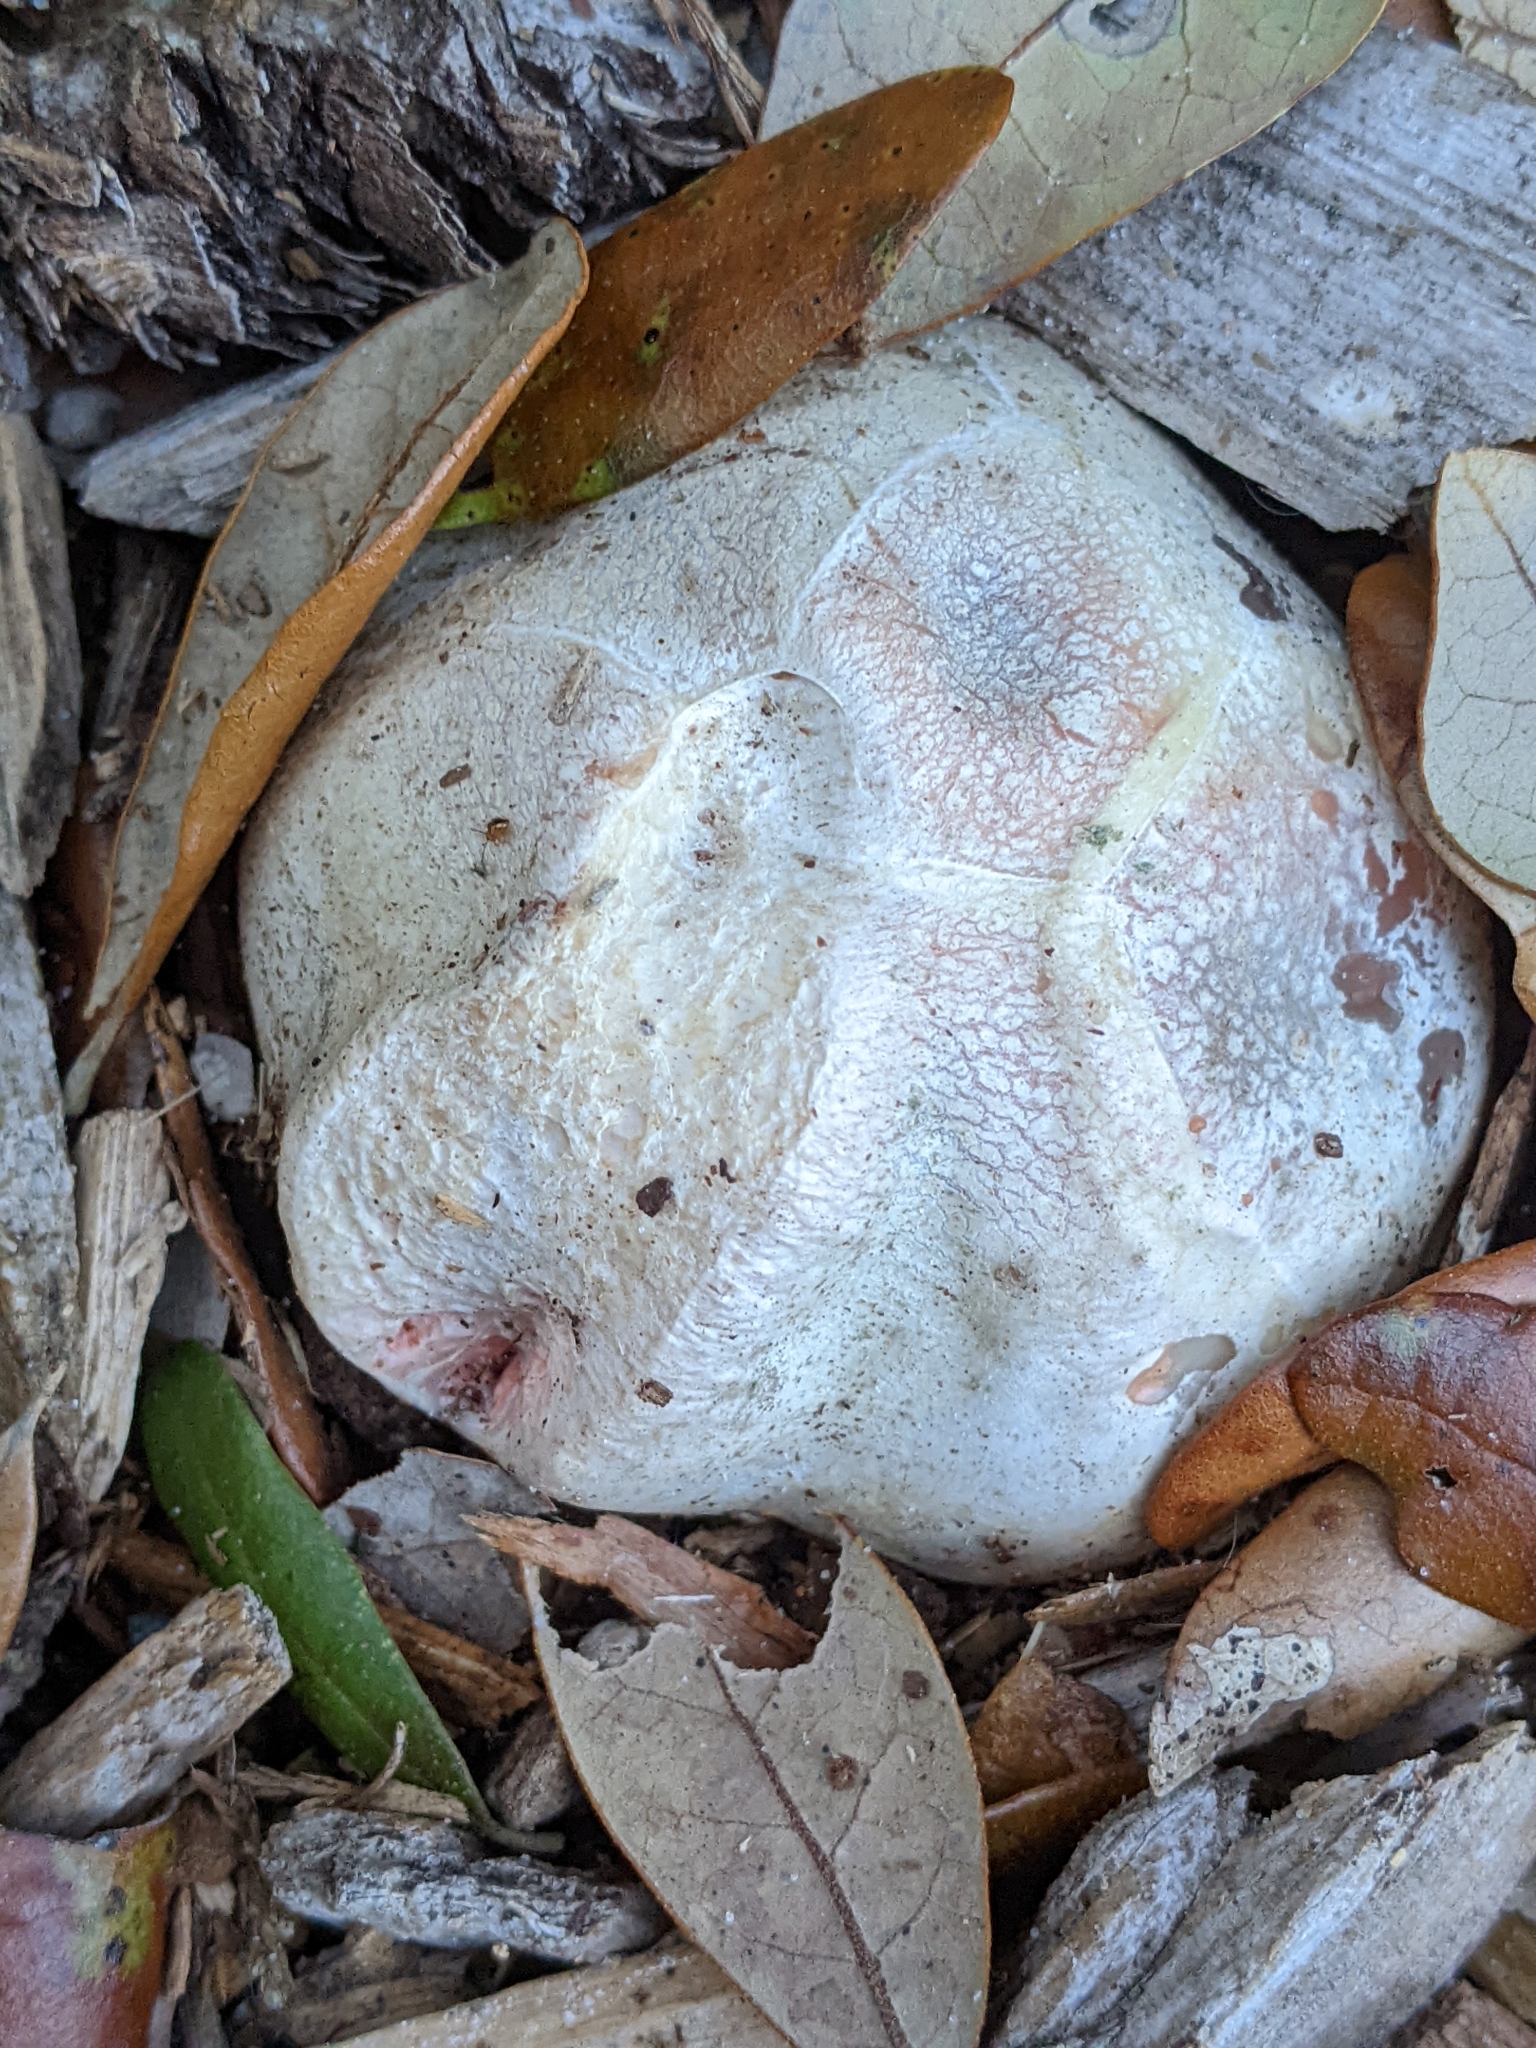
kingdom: Fungi
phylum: Basidiomycota
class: Agaricomycetes
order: Phallales
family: Phallaceae
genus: Clathrus
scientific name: Clathrus columnatus
